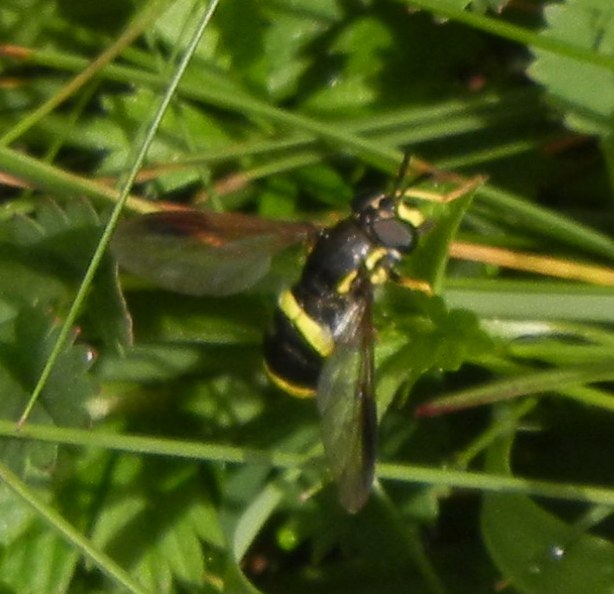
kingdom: Animalia
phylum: Arthropoda
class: Insecta
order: Diptera
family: Syrphidae
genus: Chrysotoxum
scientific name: Chrysotoxum bicincta
